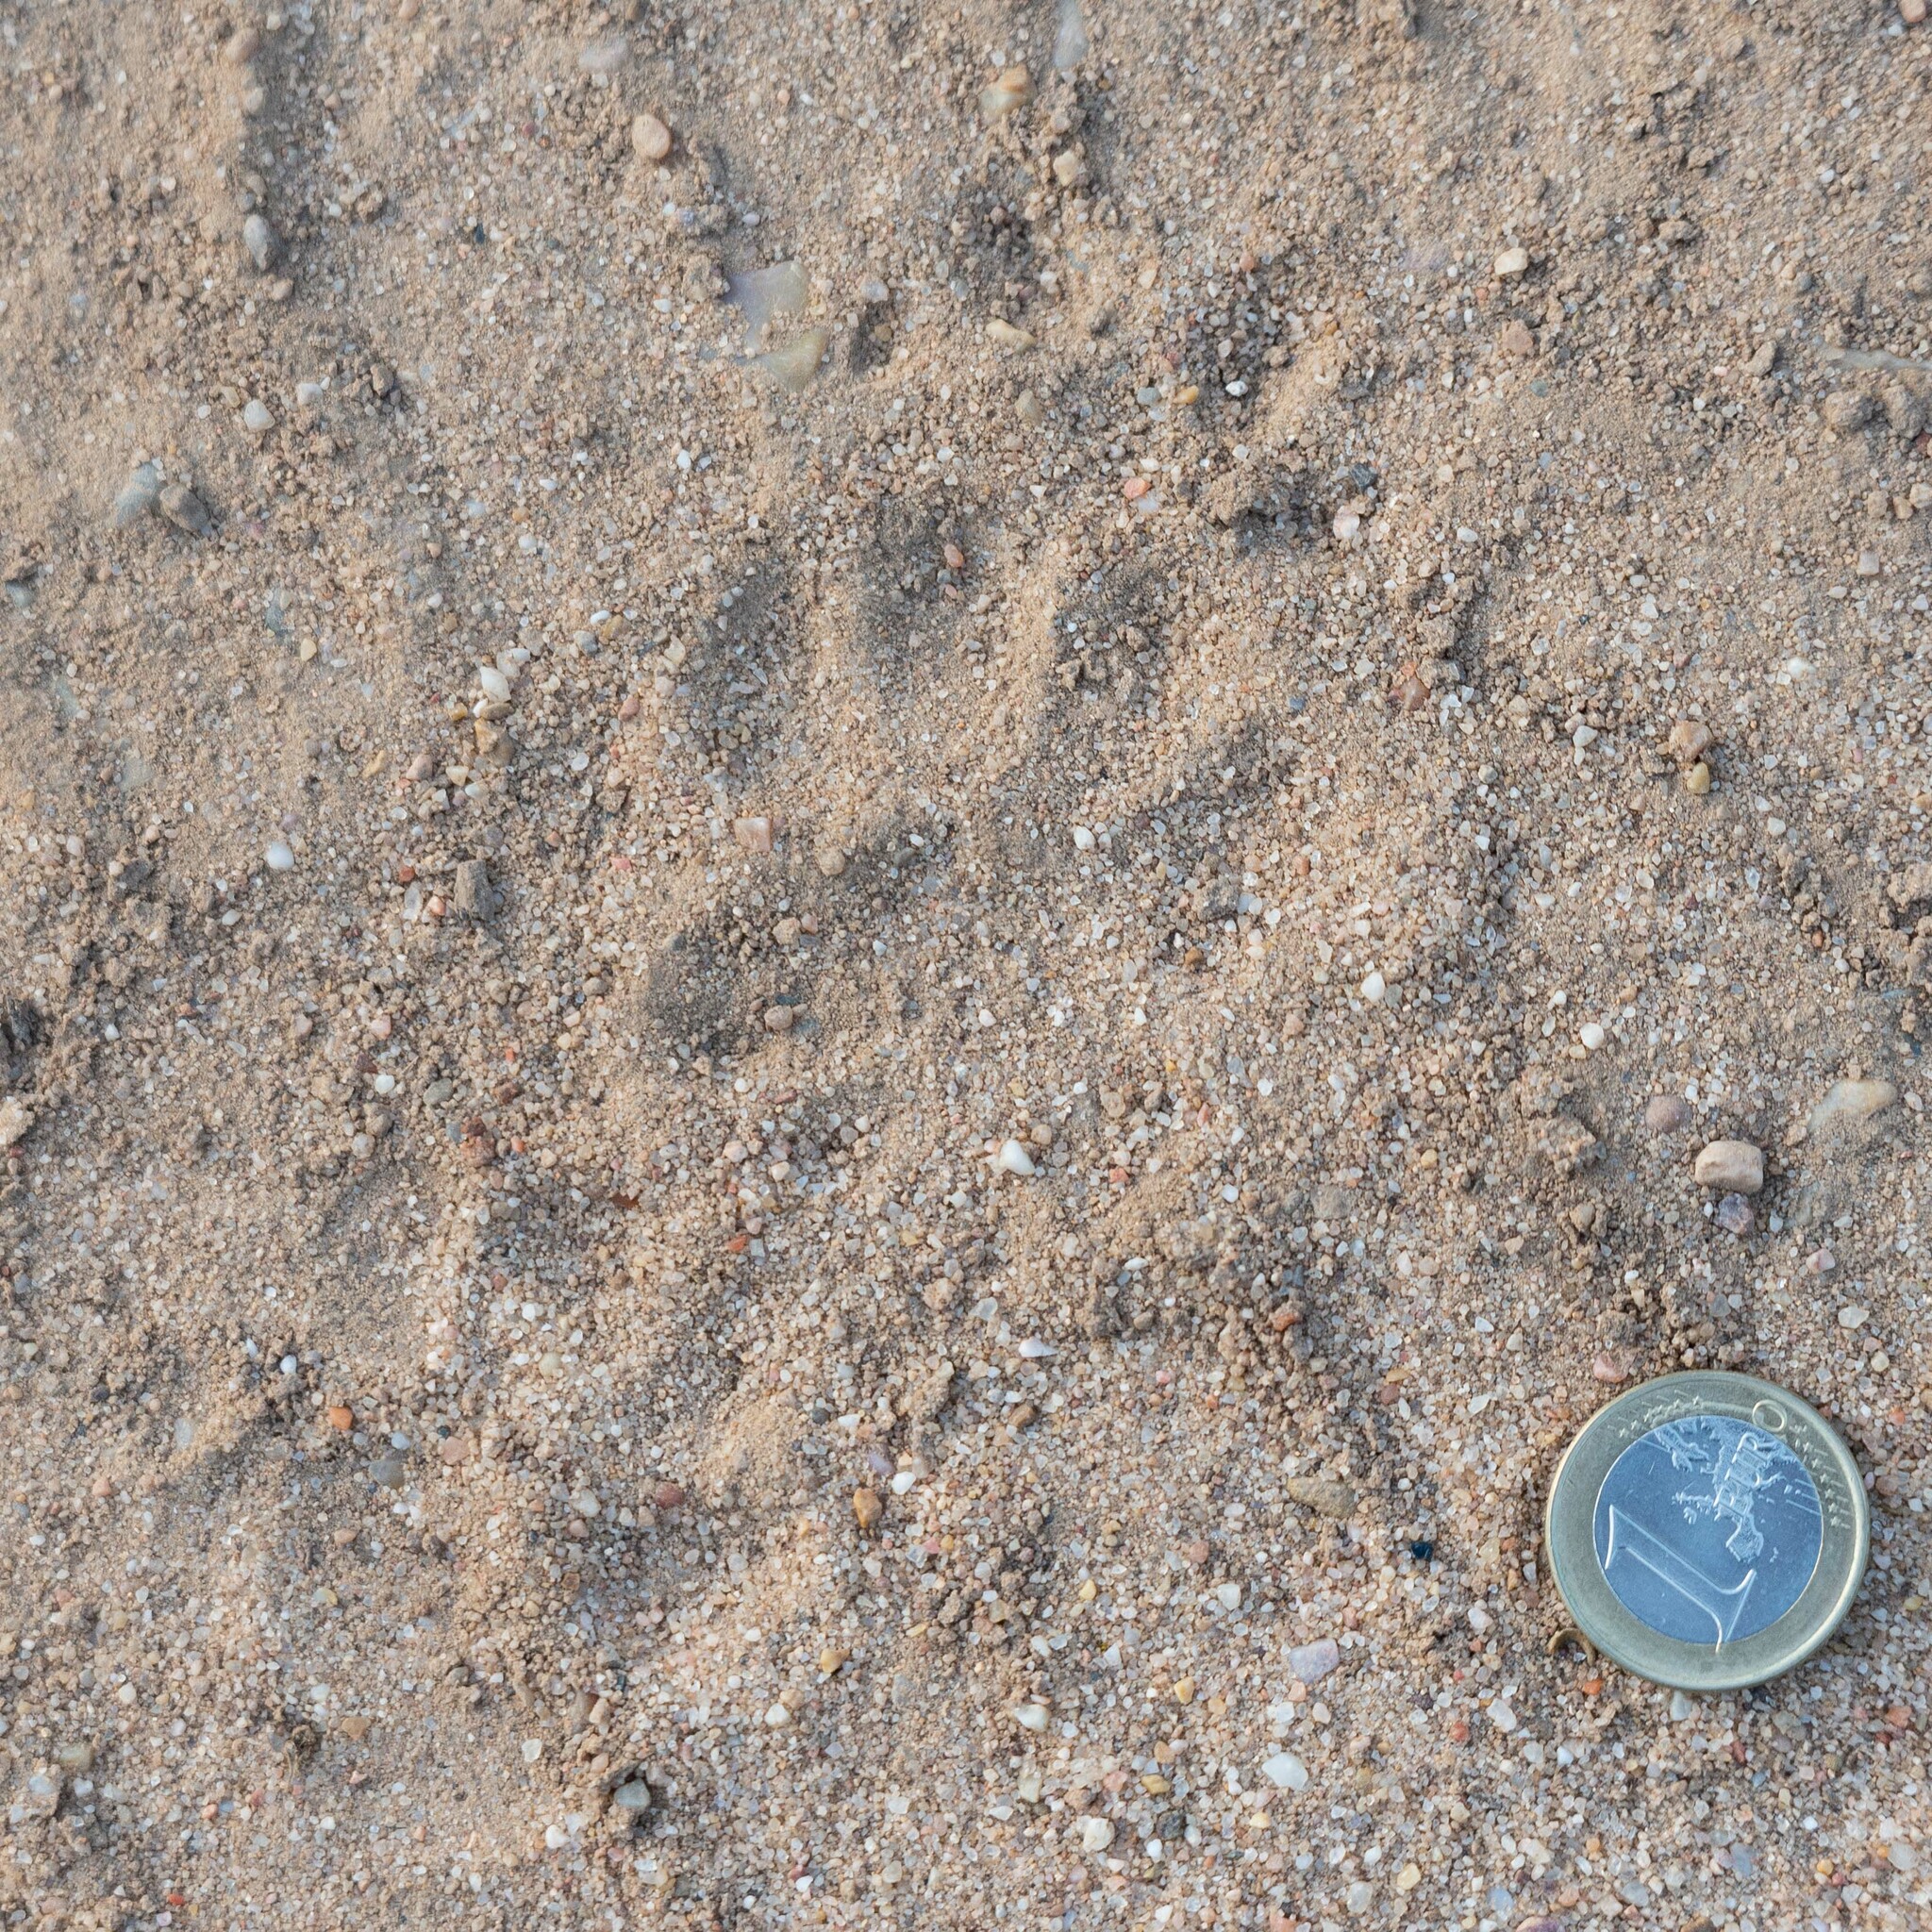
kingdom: Animalia
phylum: Chordata
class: Mammalia
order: Carnivora
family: Mustelidae
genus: Meles
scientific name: Meles meles
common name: Eurasian badger
